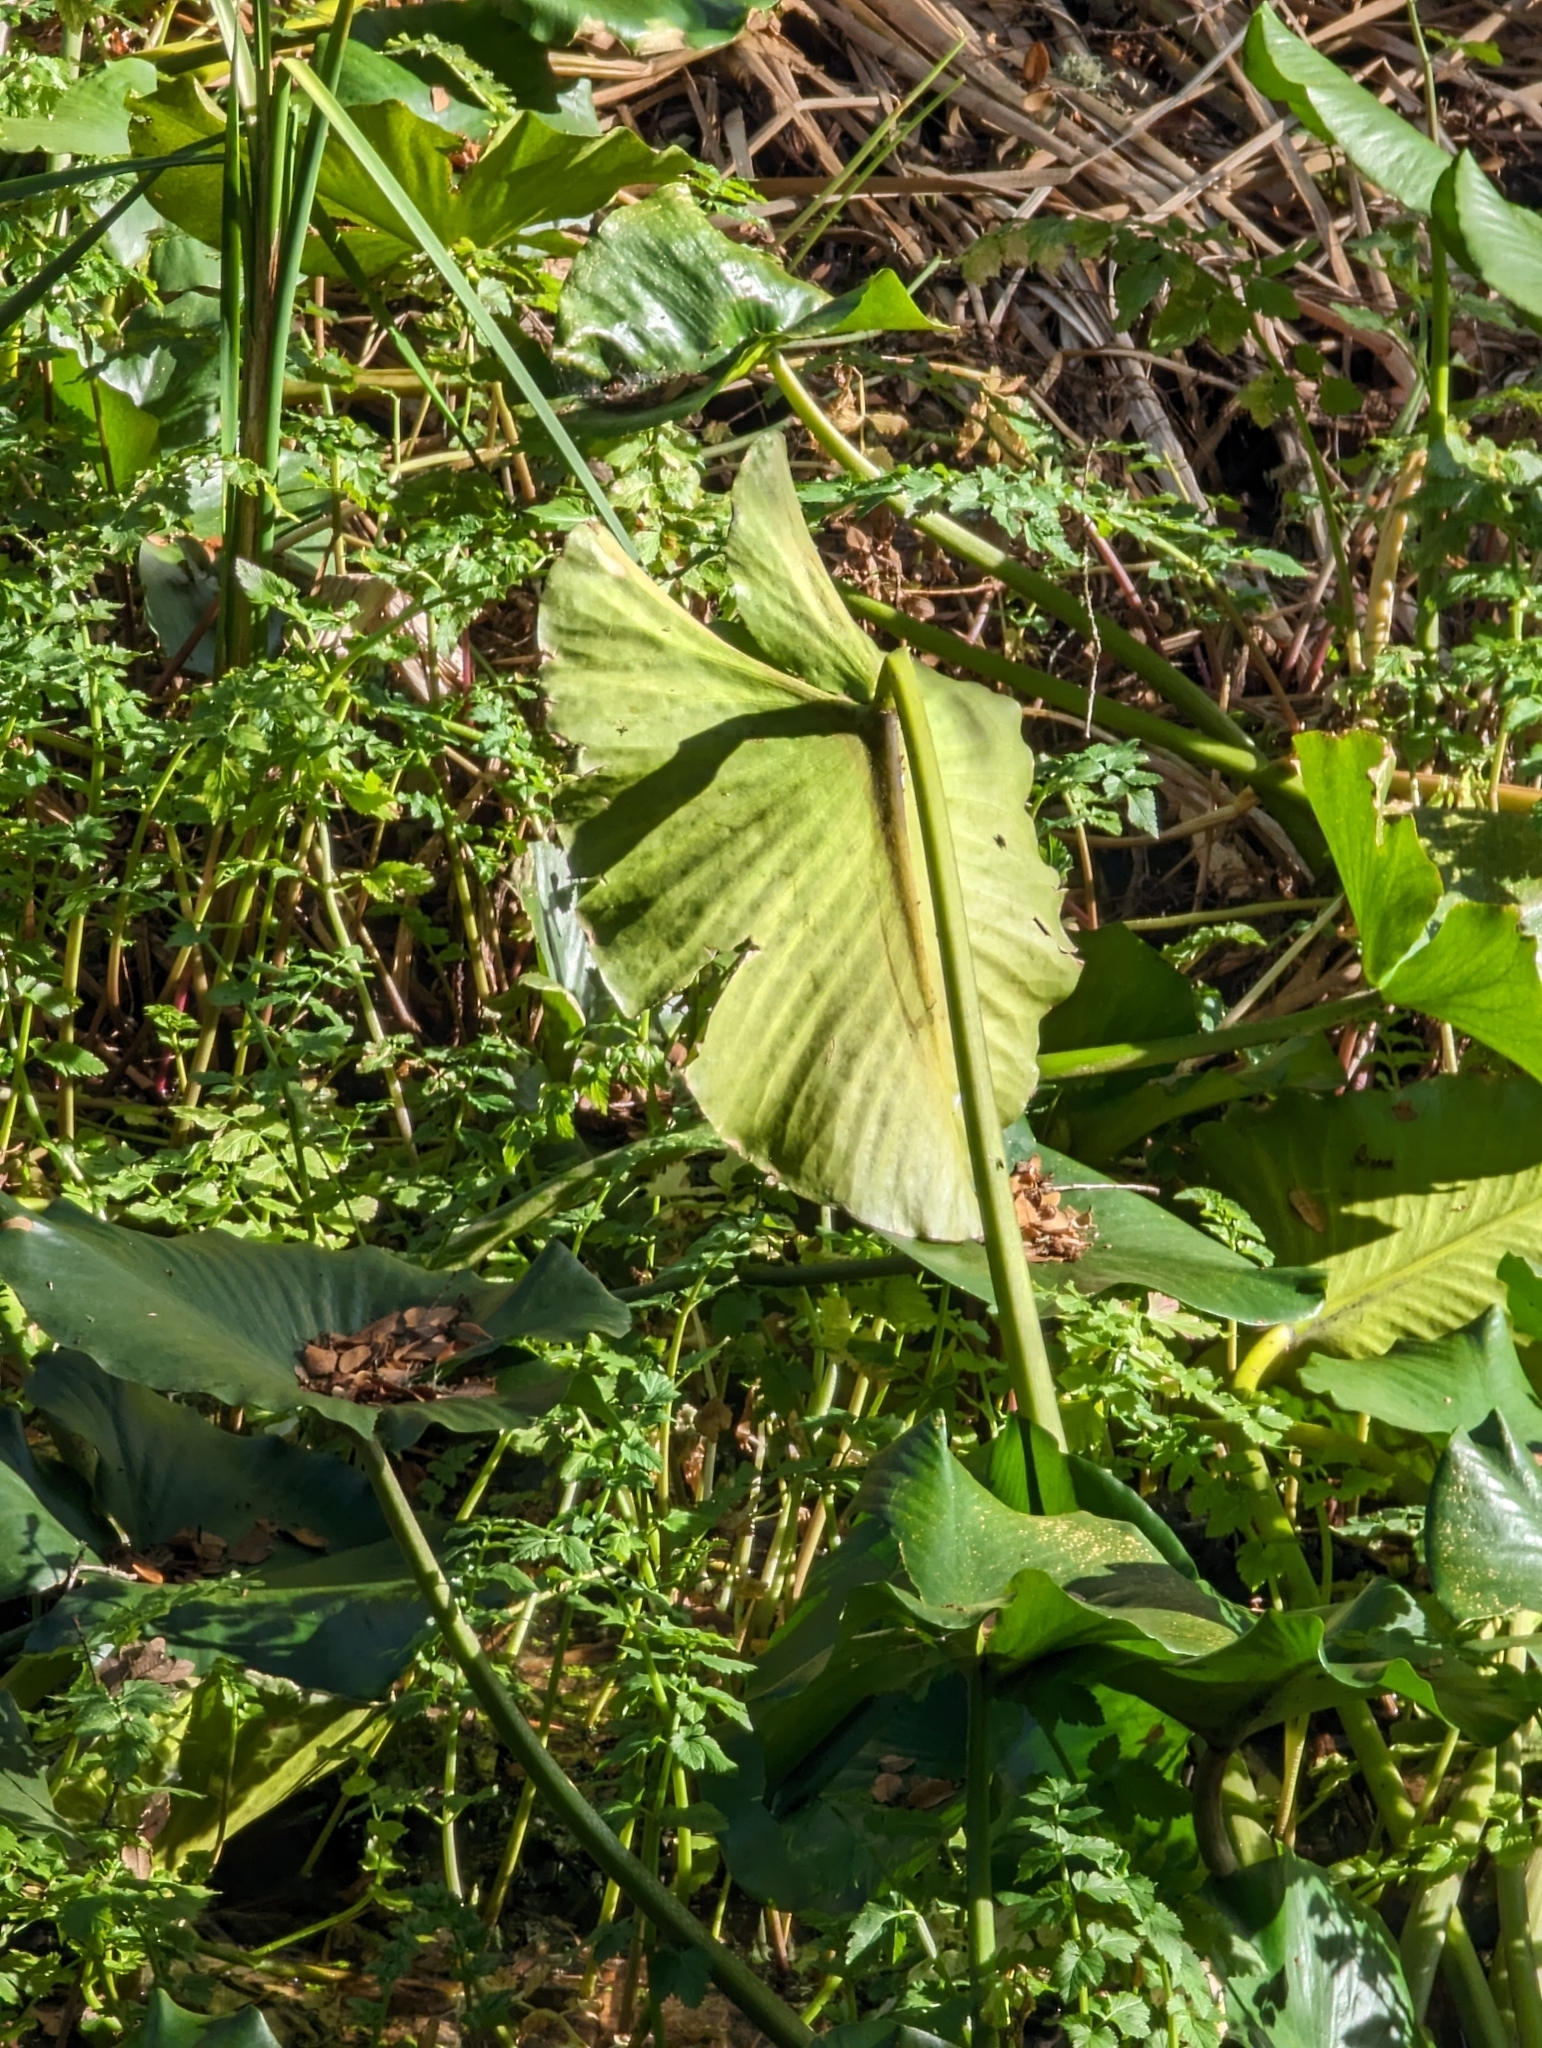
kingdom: Plantae
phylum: Tracheophyta
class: Magnoliopsida
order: Nymphaeales
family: Nymphaeaceae
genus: Nuphar
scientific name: Nuphar polysepala
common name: Rocky mountain cow-lily
